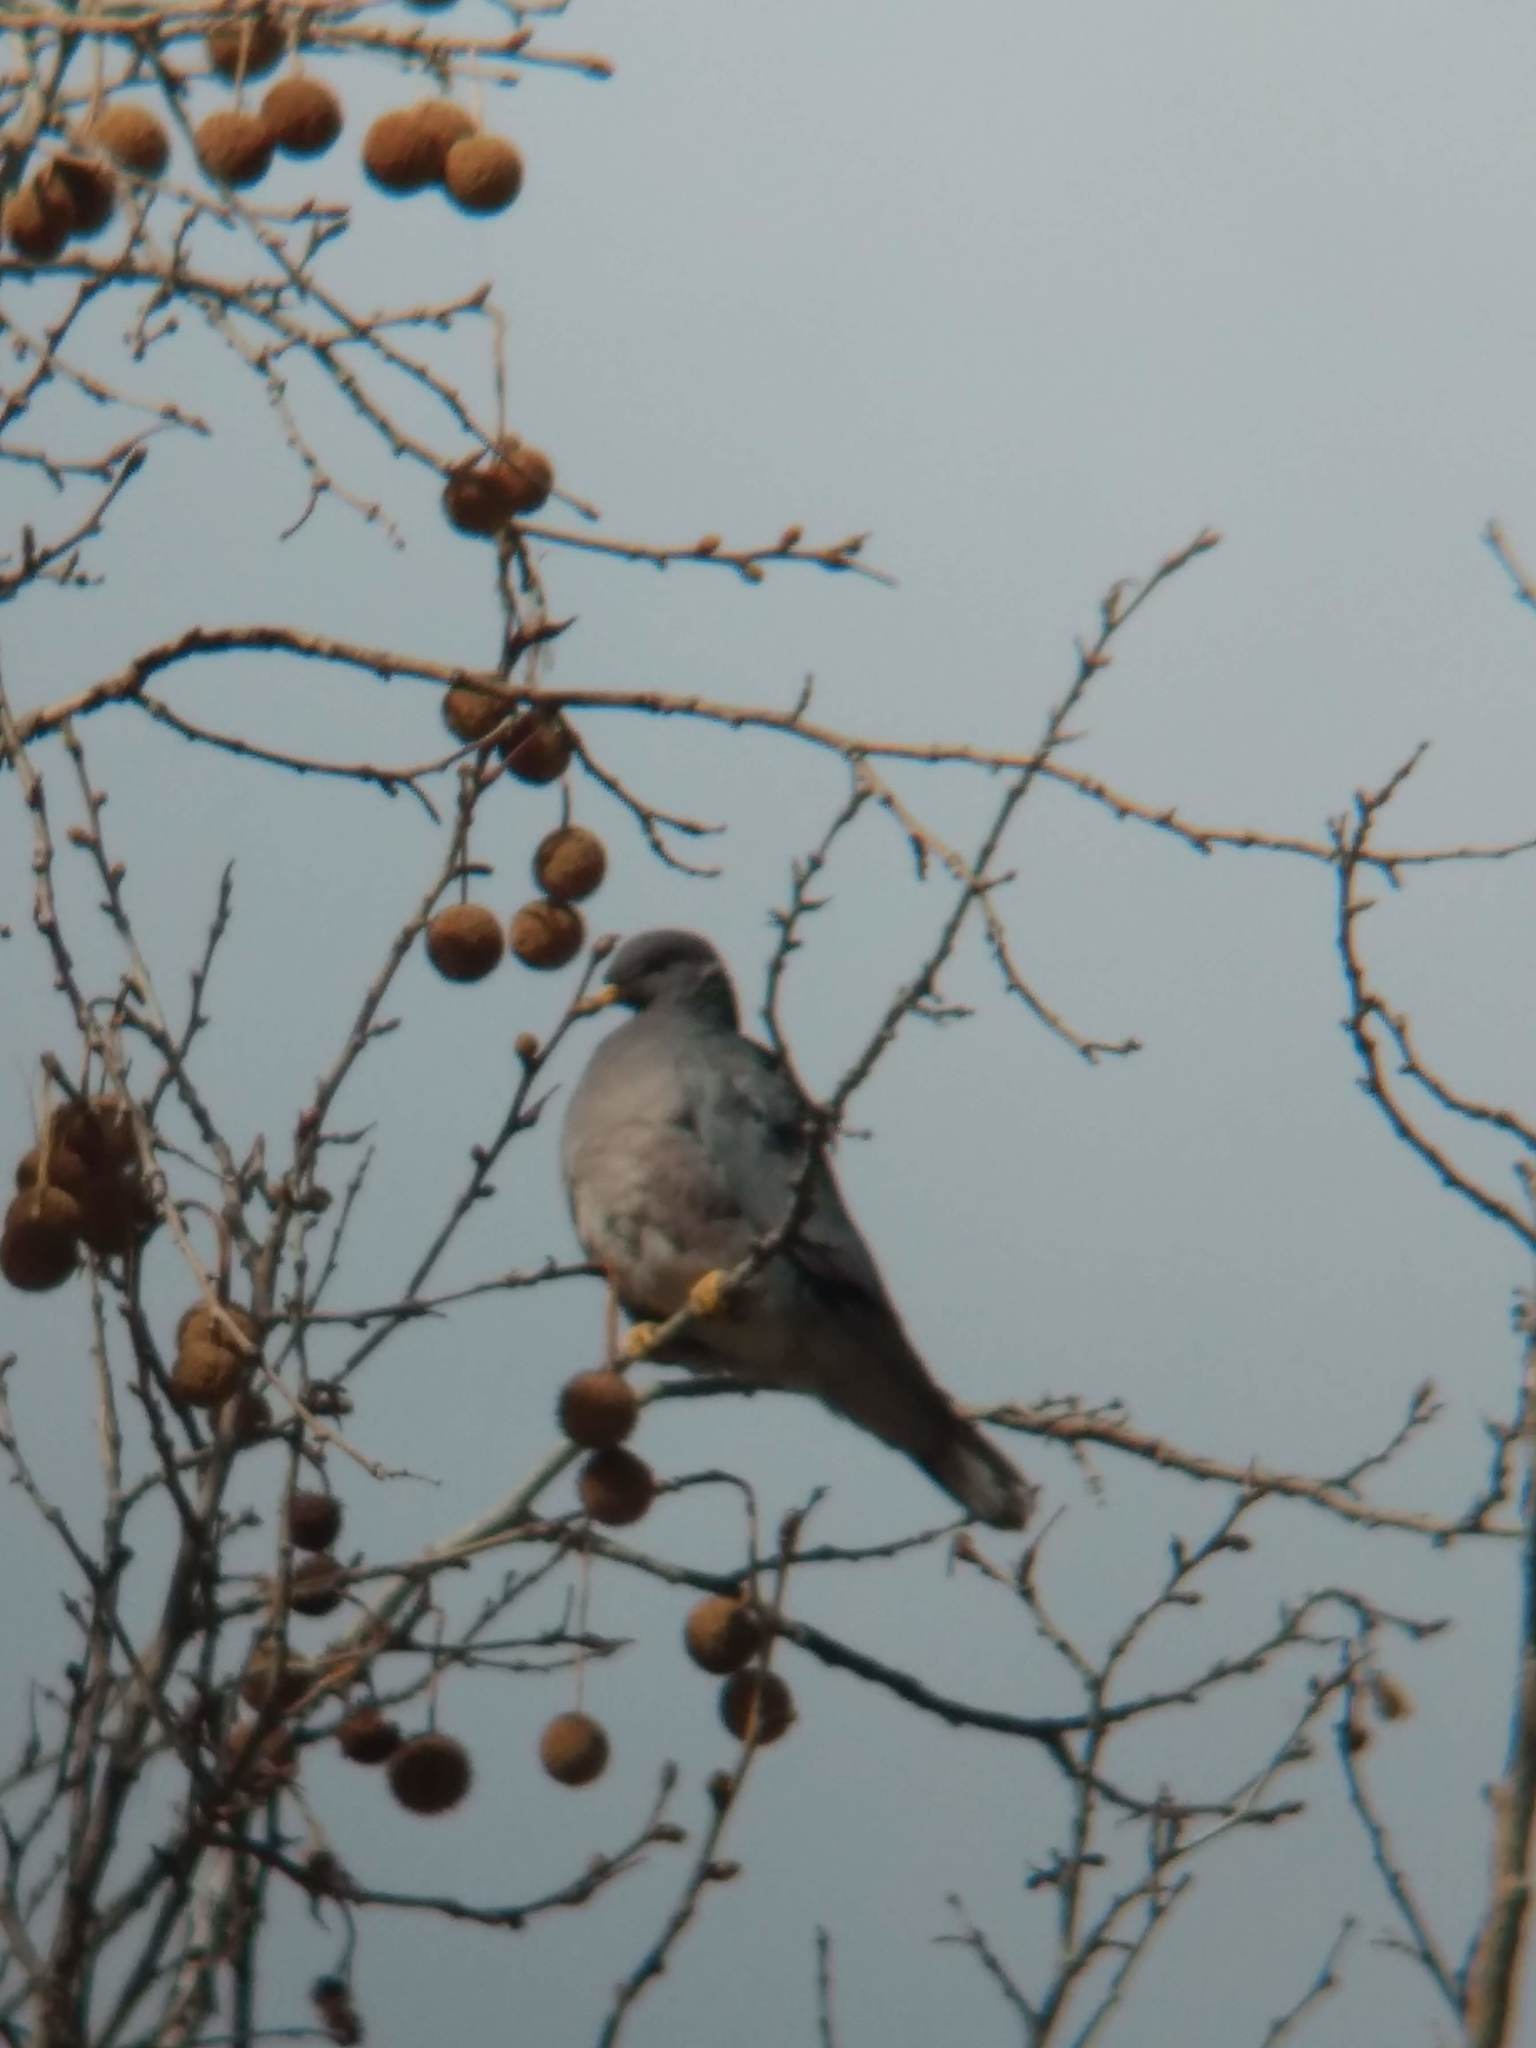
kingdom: Animalia
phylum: Chordata
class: Aves
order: Columbiformes
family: Columbidae
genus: Patagioenas
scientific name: Patagioenas fasciata
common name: Band-tailed pigeon
